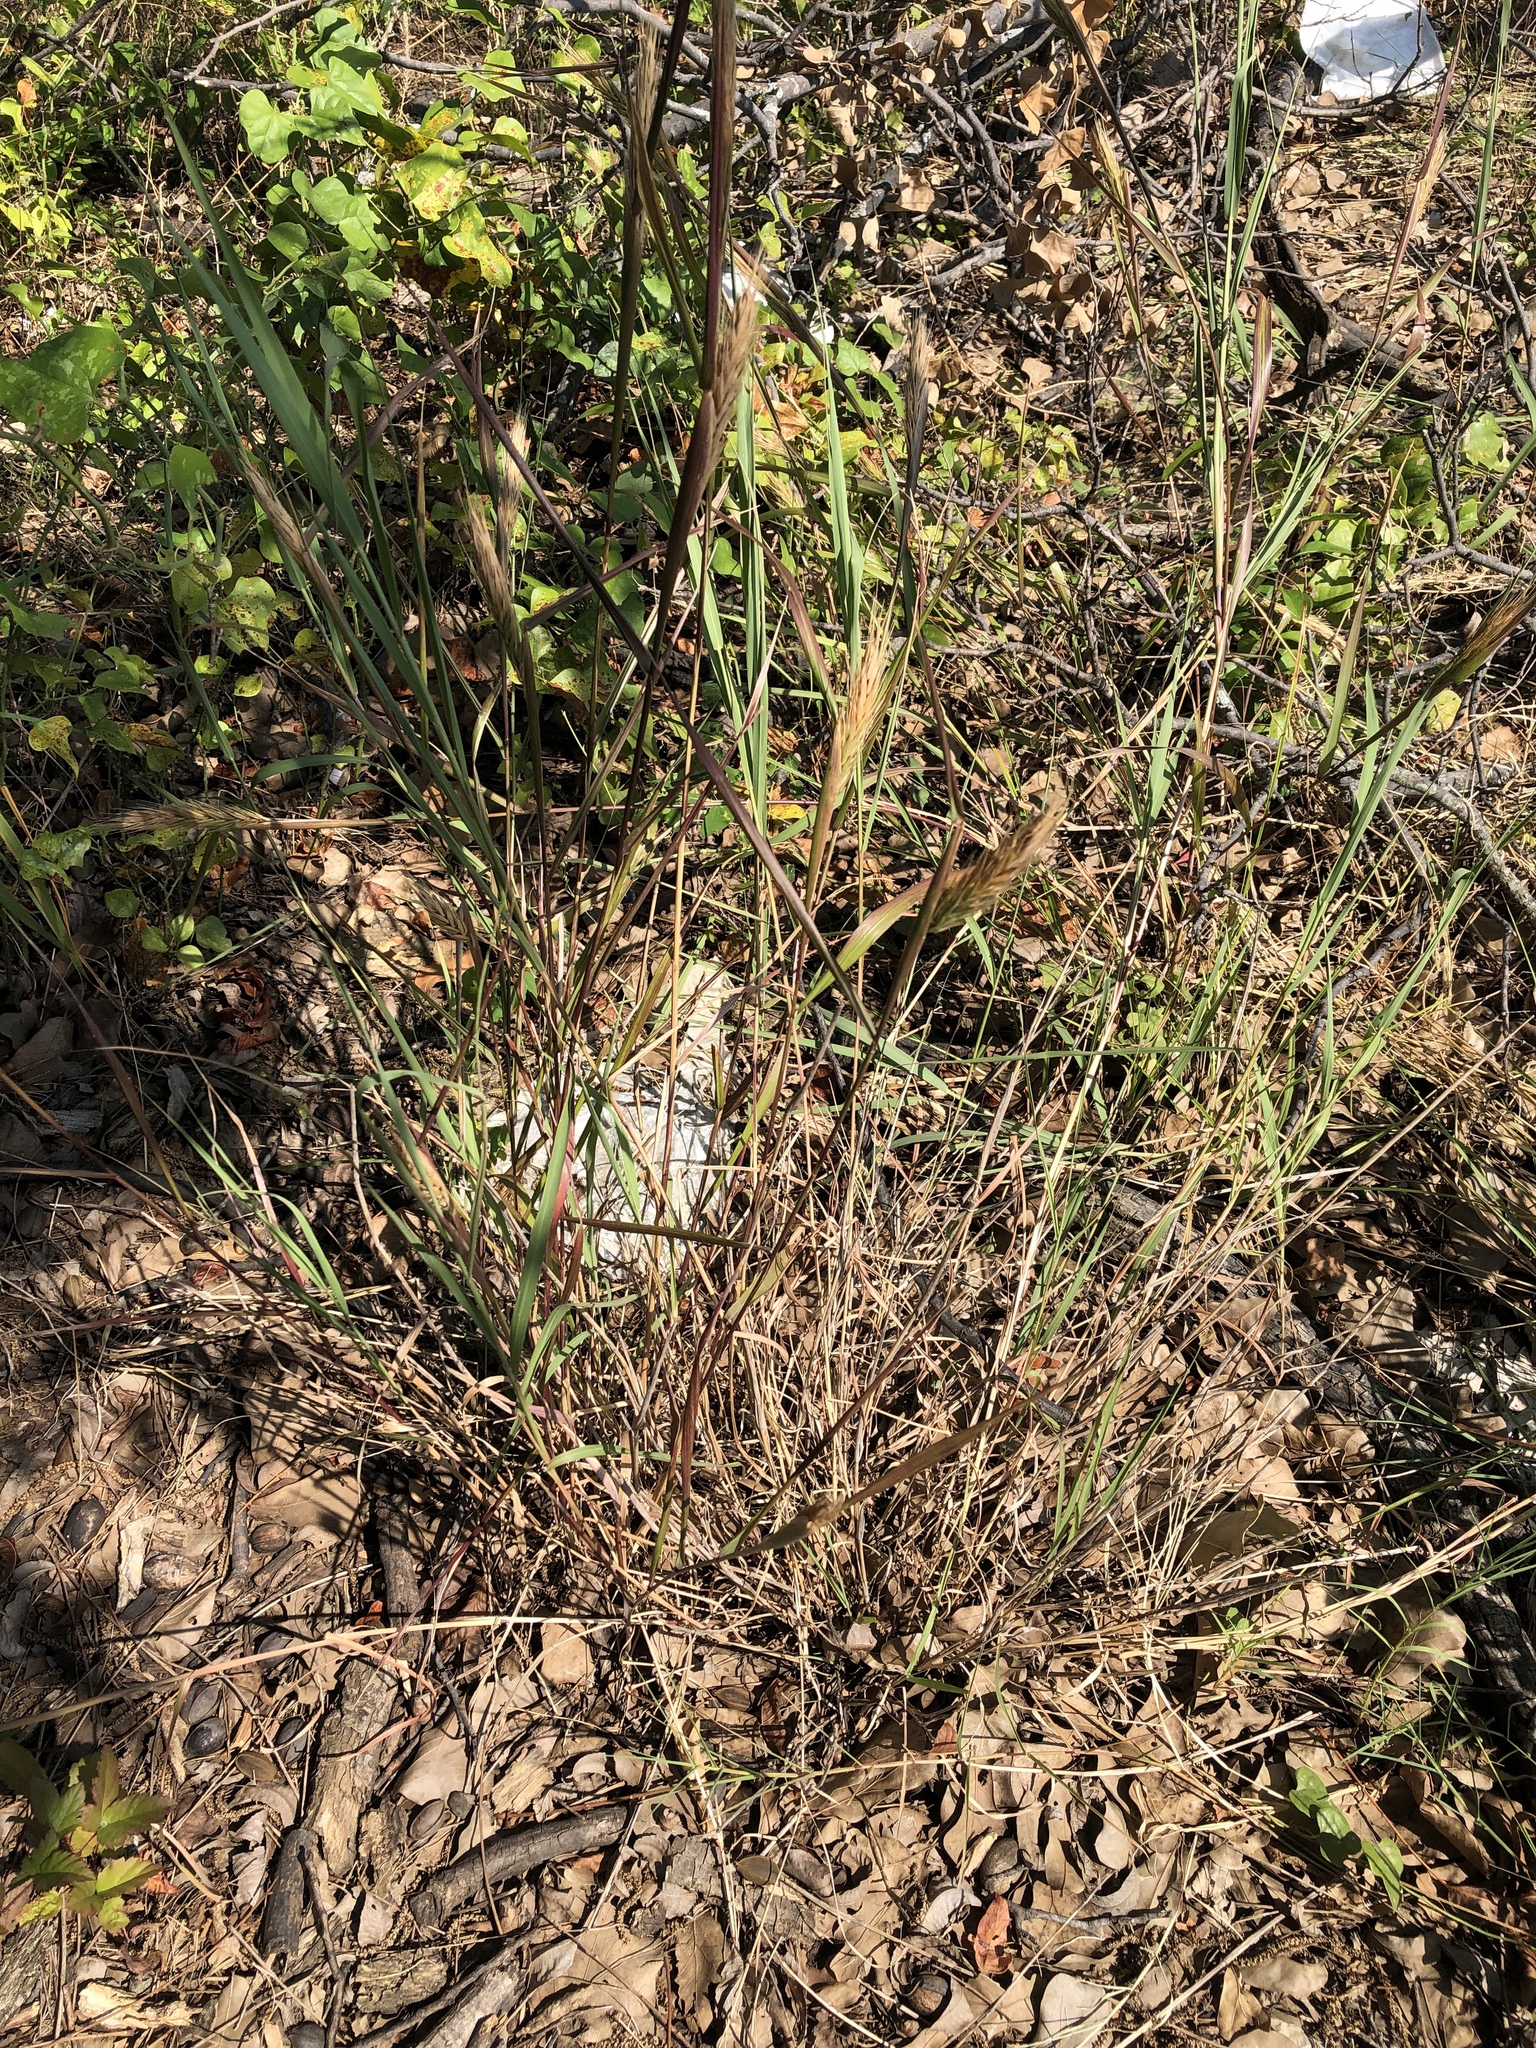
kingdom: Plantae
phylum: Tracheophyta
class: Liliopsida
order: Poales
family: Poaceae
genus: Elymus
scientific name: Elymus virginicus
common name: Common eastern wildrye
